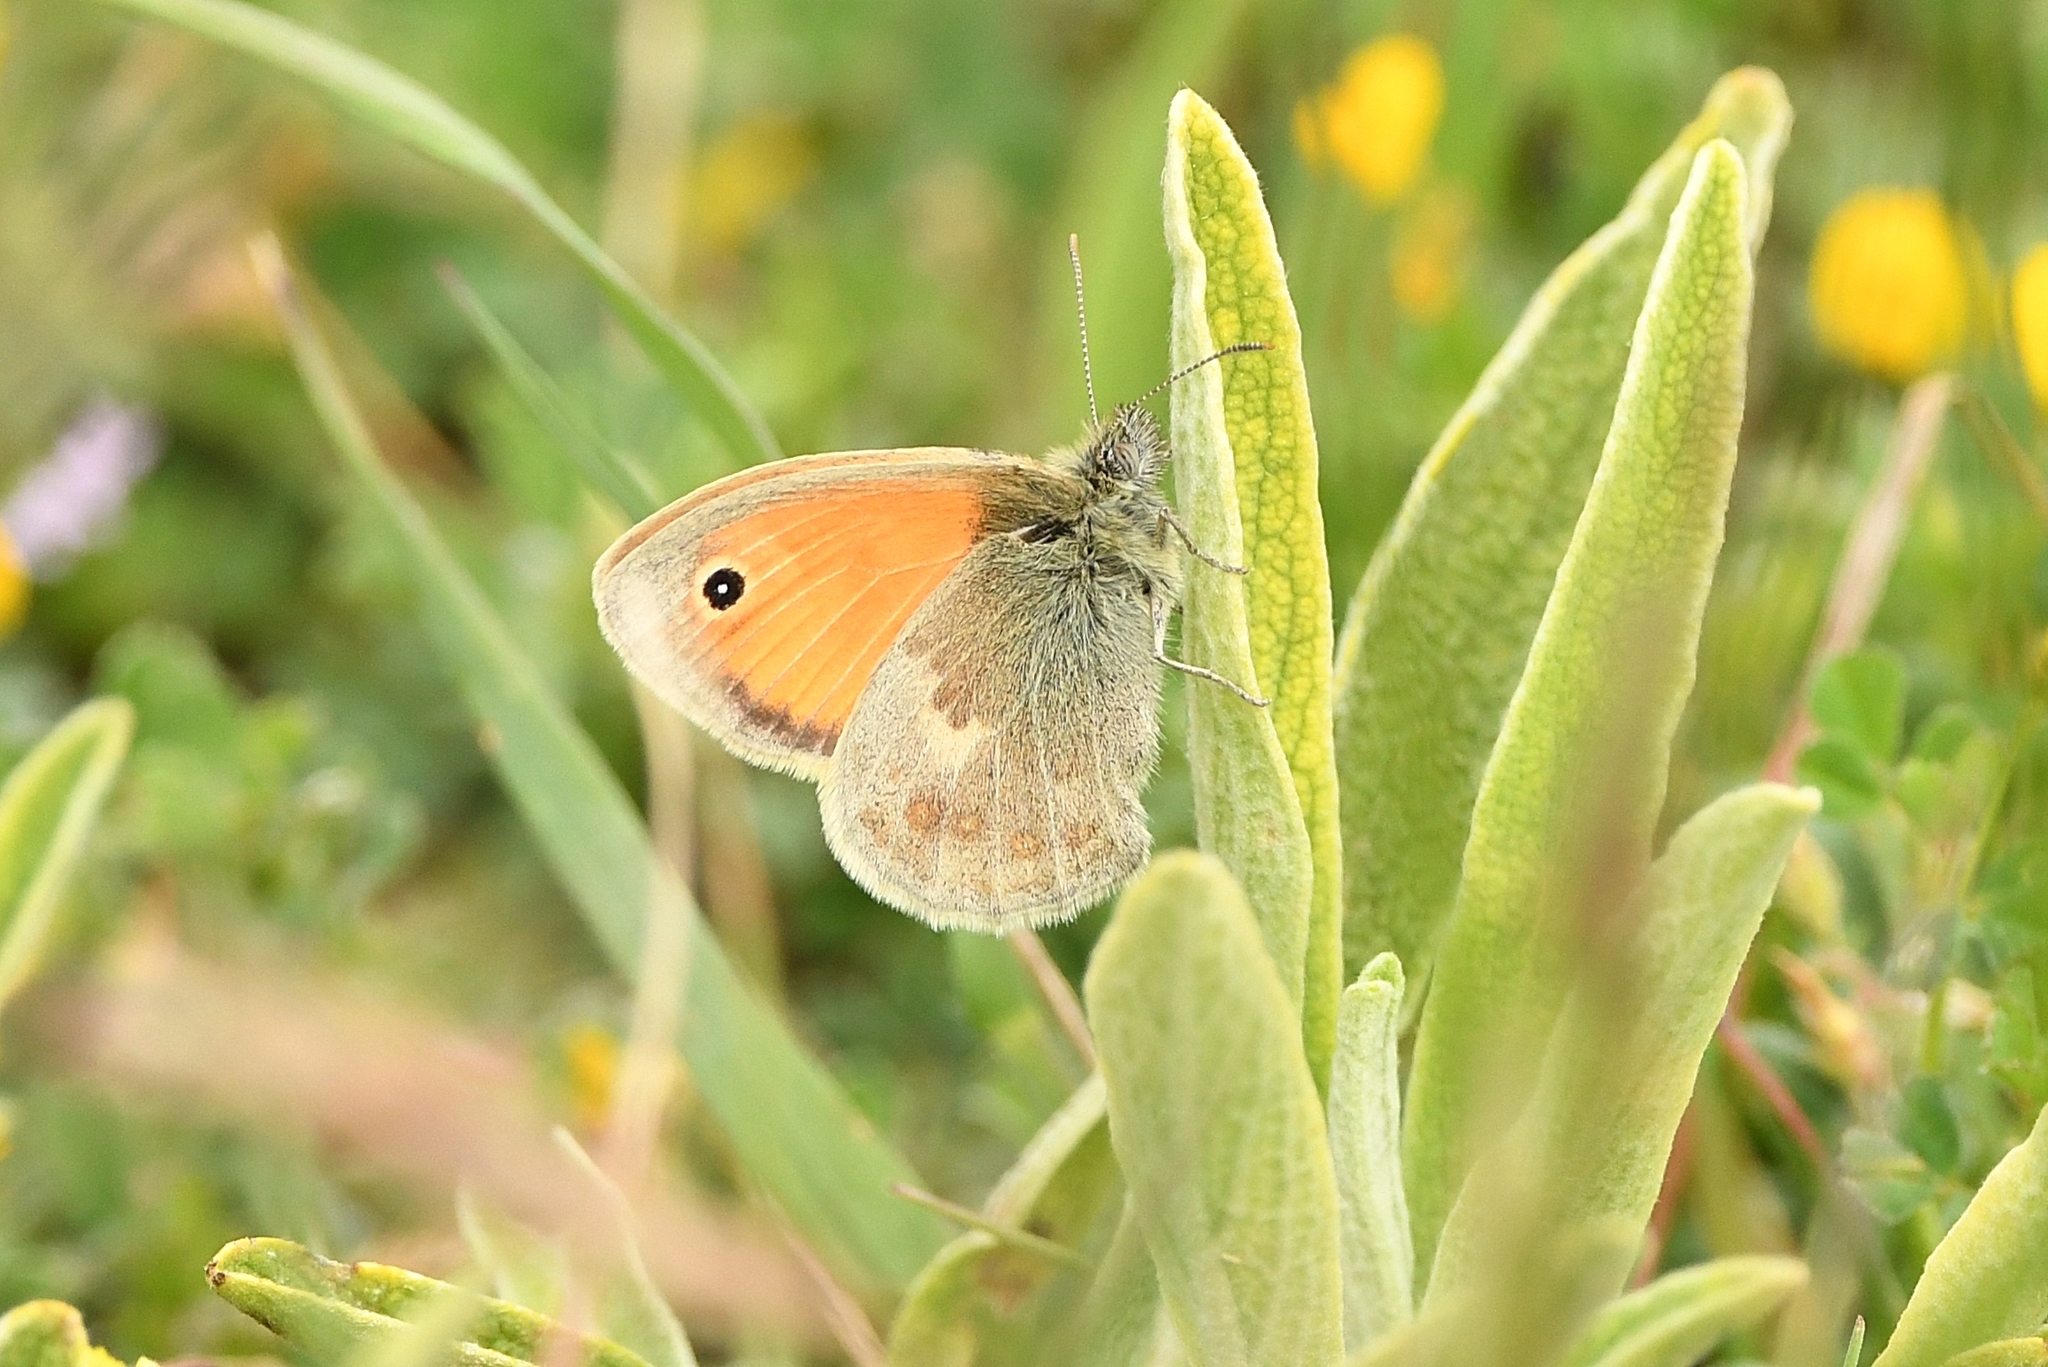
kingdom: Animalia
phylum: Arthropoda
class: Insecta
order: Lepidoptera
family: Nymphalidae
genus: Coenonympha
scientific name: Coenonympha pamphilus
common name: Small heath
